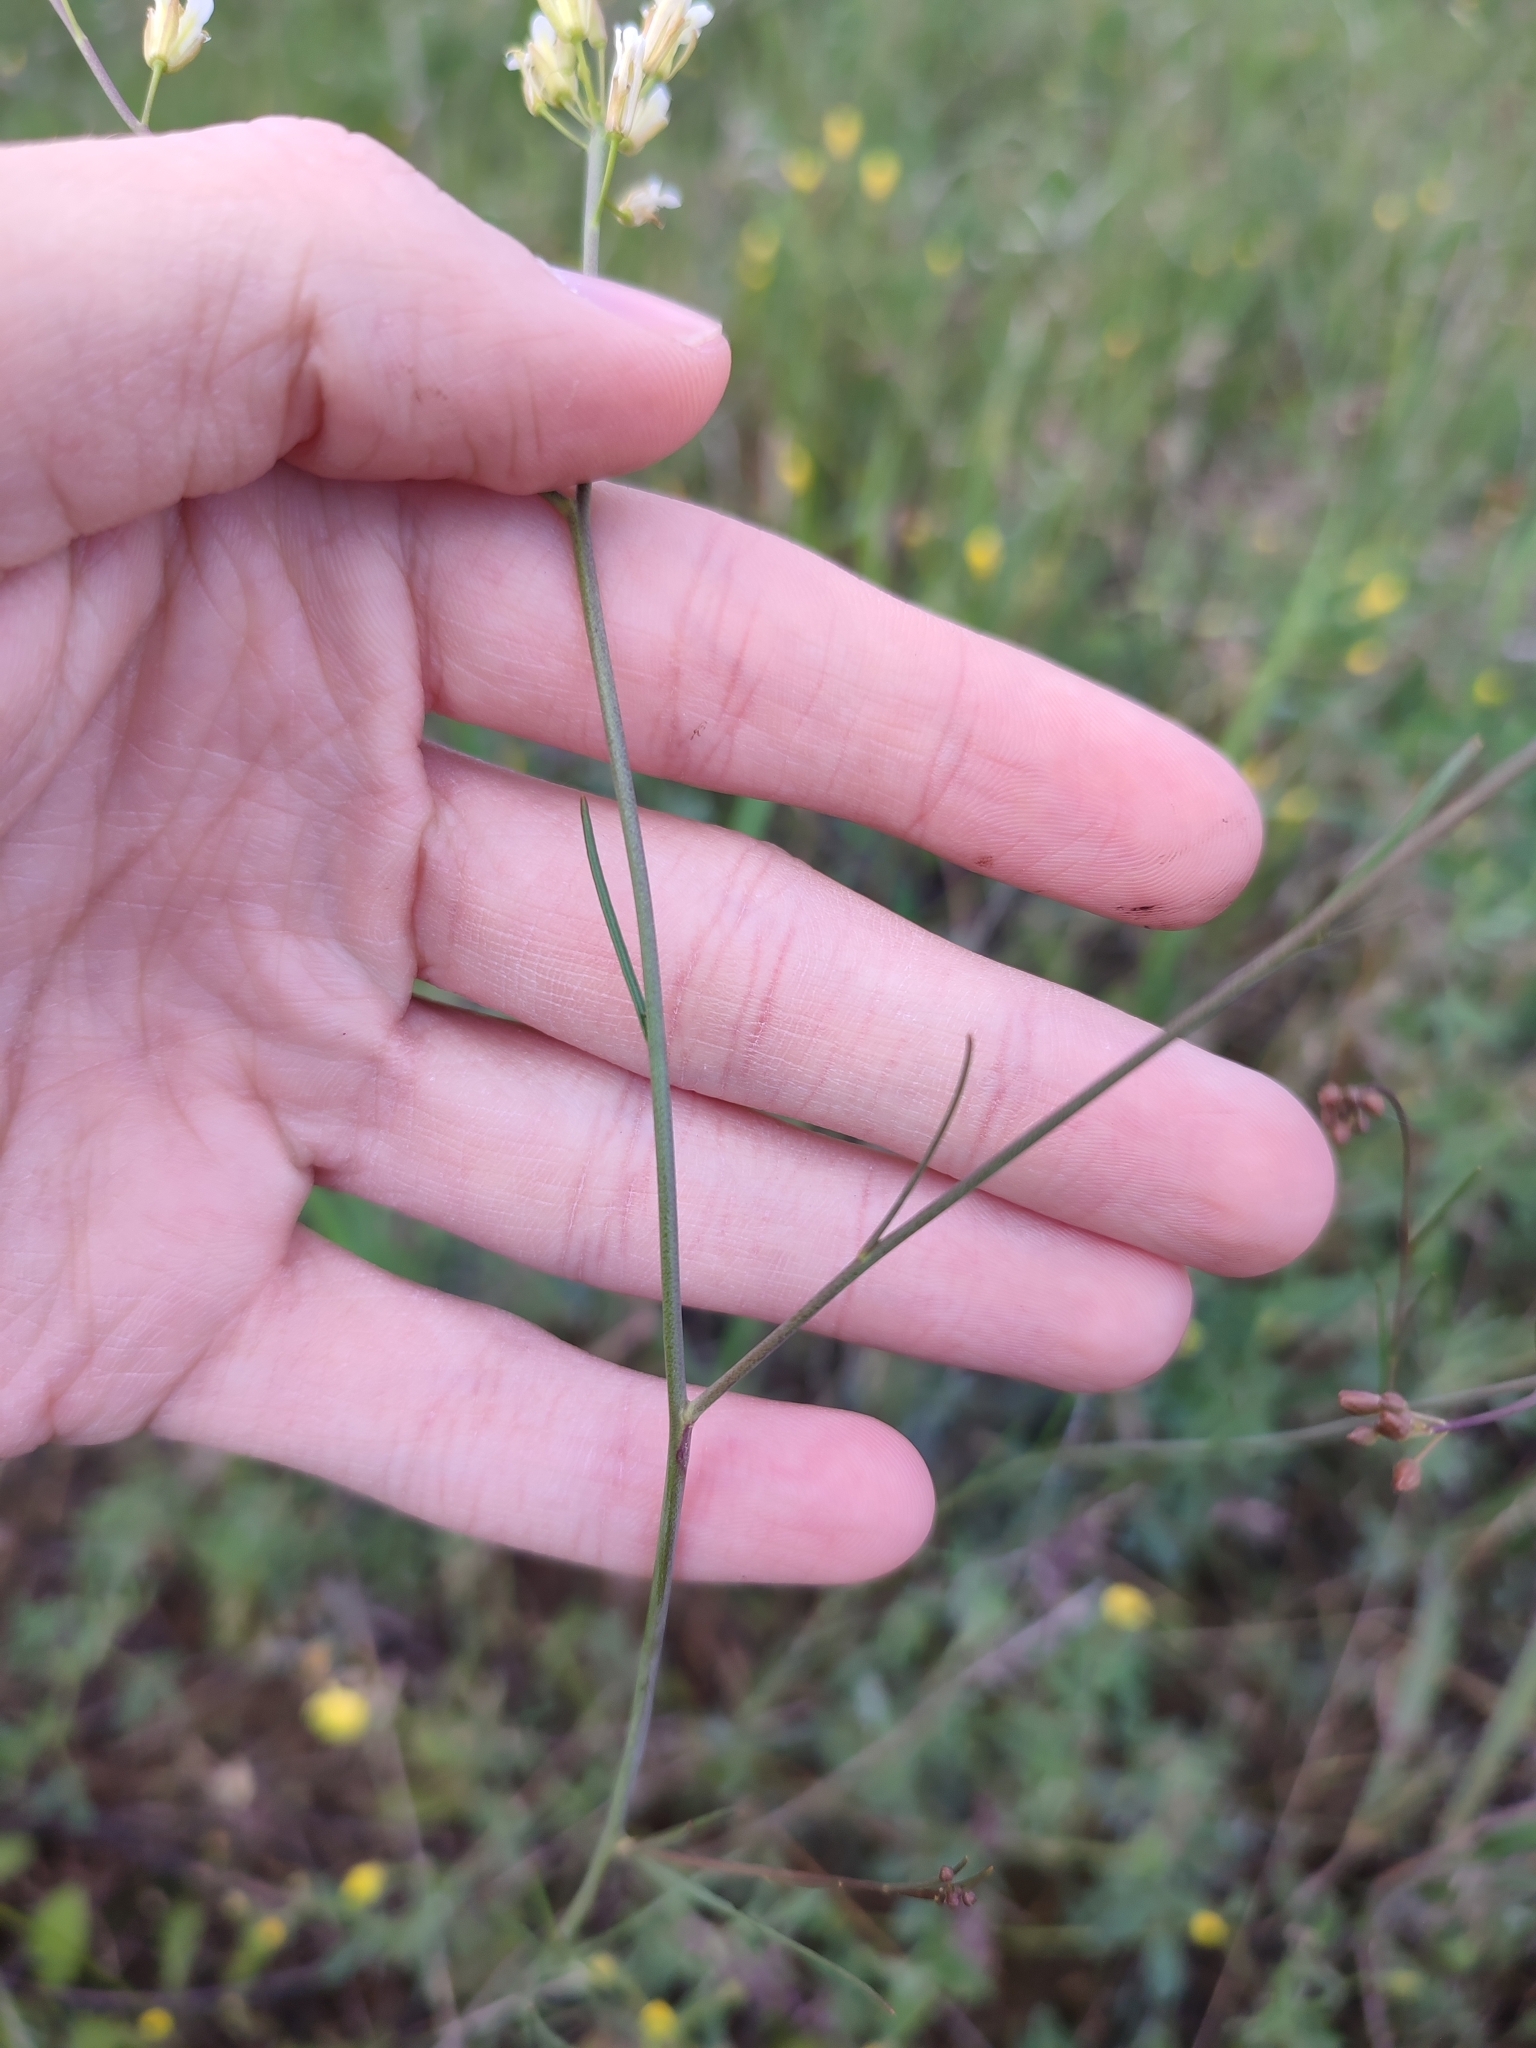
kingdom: Plantae
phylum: Tracheophyta
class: Magnoliopsida
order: Brassicales
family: Brassicaceae
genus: Sisymbrium
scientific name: Sisymbrium polymorphum
